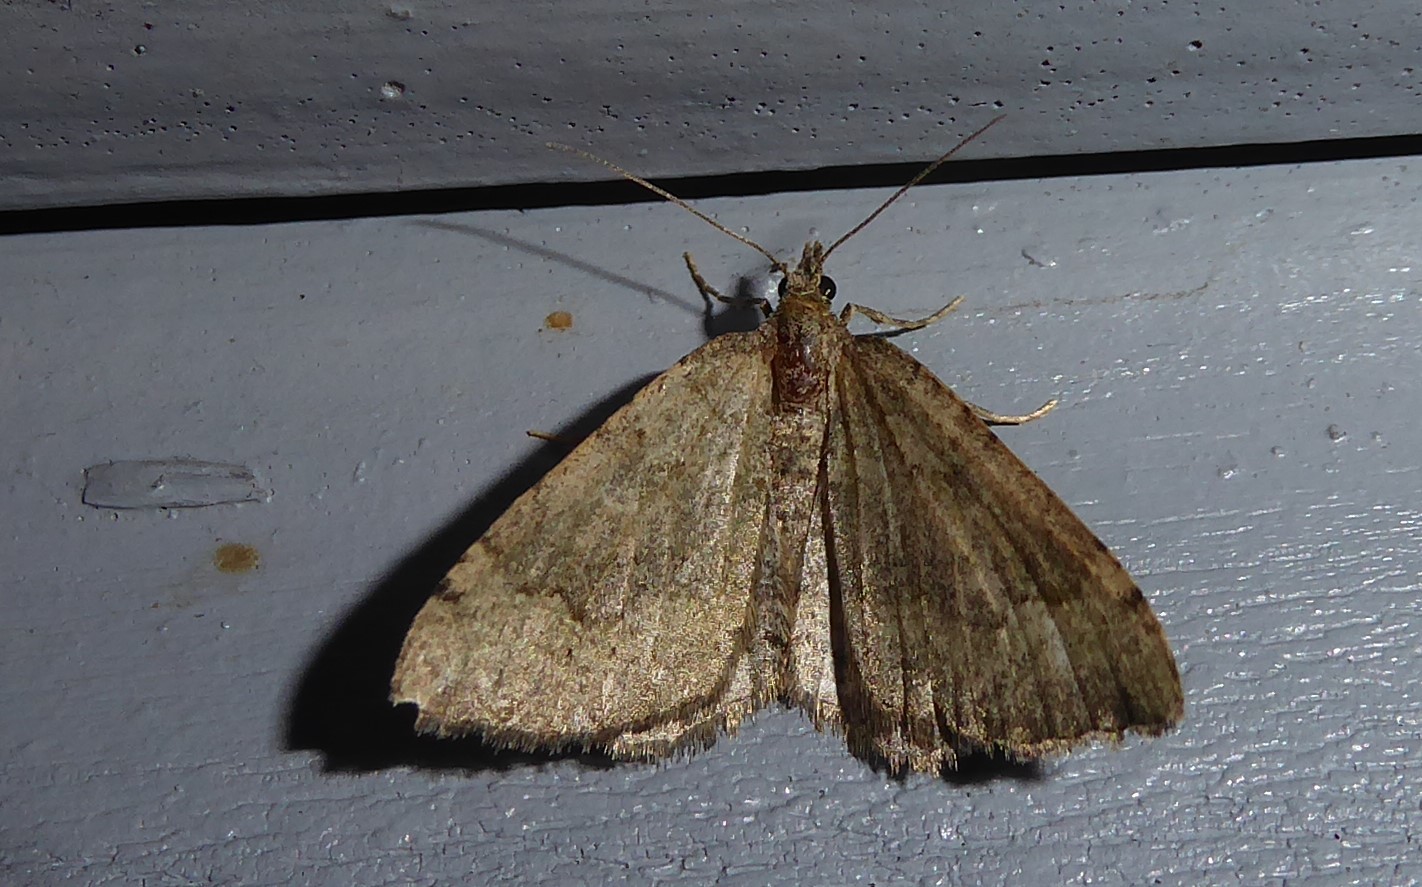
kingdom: Animalia
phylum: Arthropoda
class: Insecta
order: Lepidoptera
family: Geometridae
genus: Epyaxa
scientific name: Epyaxa rosearia
